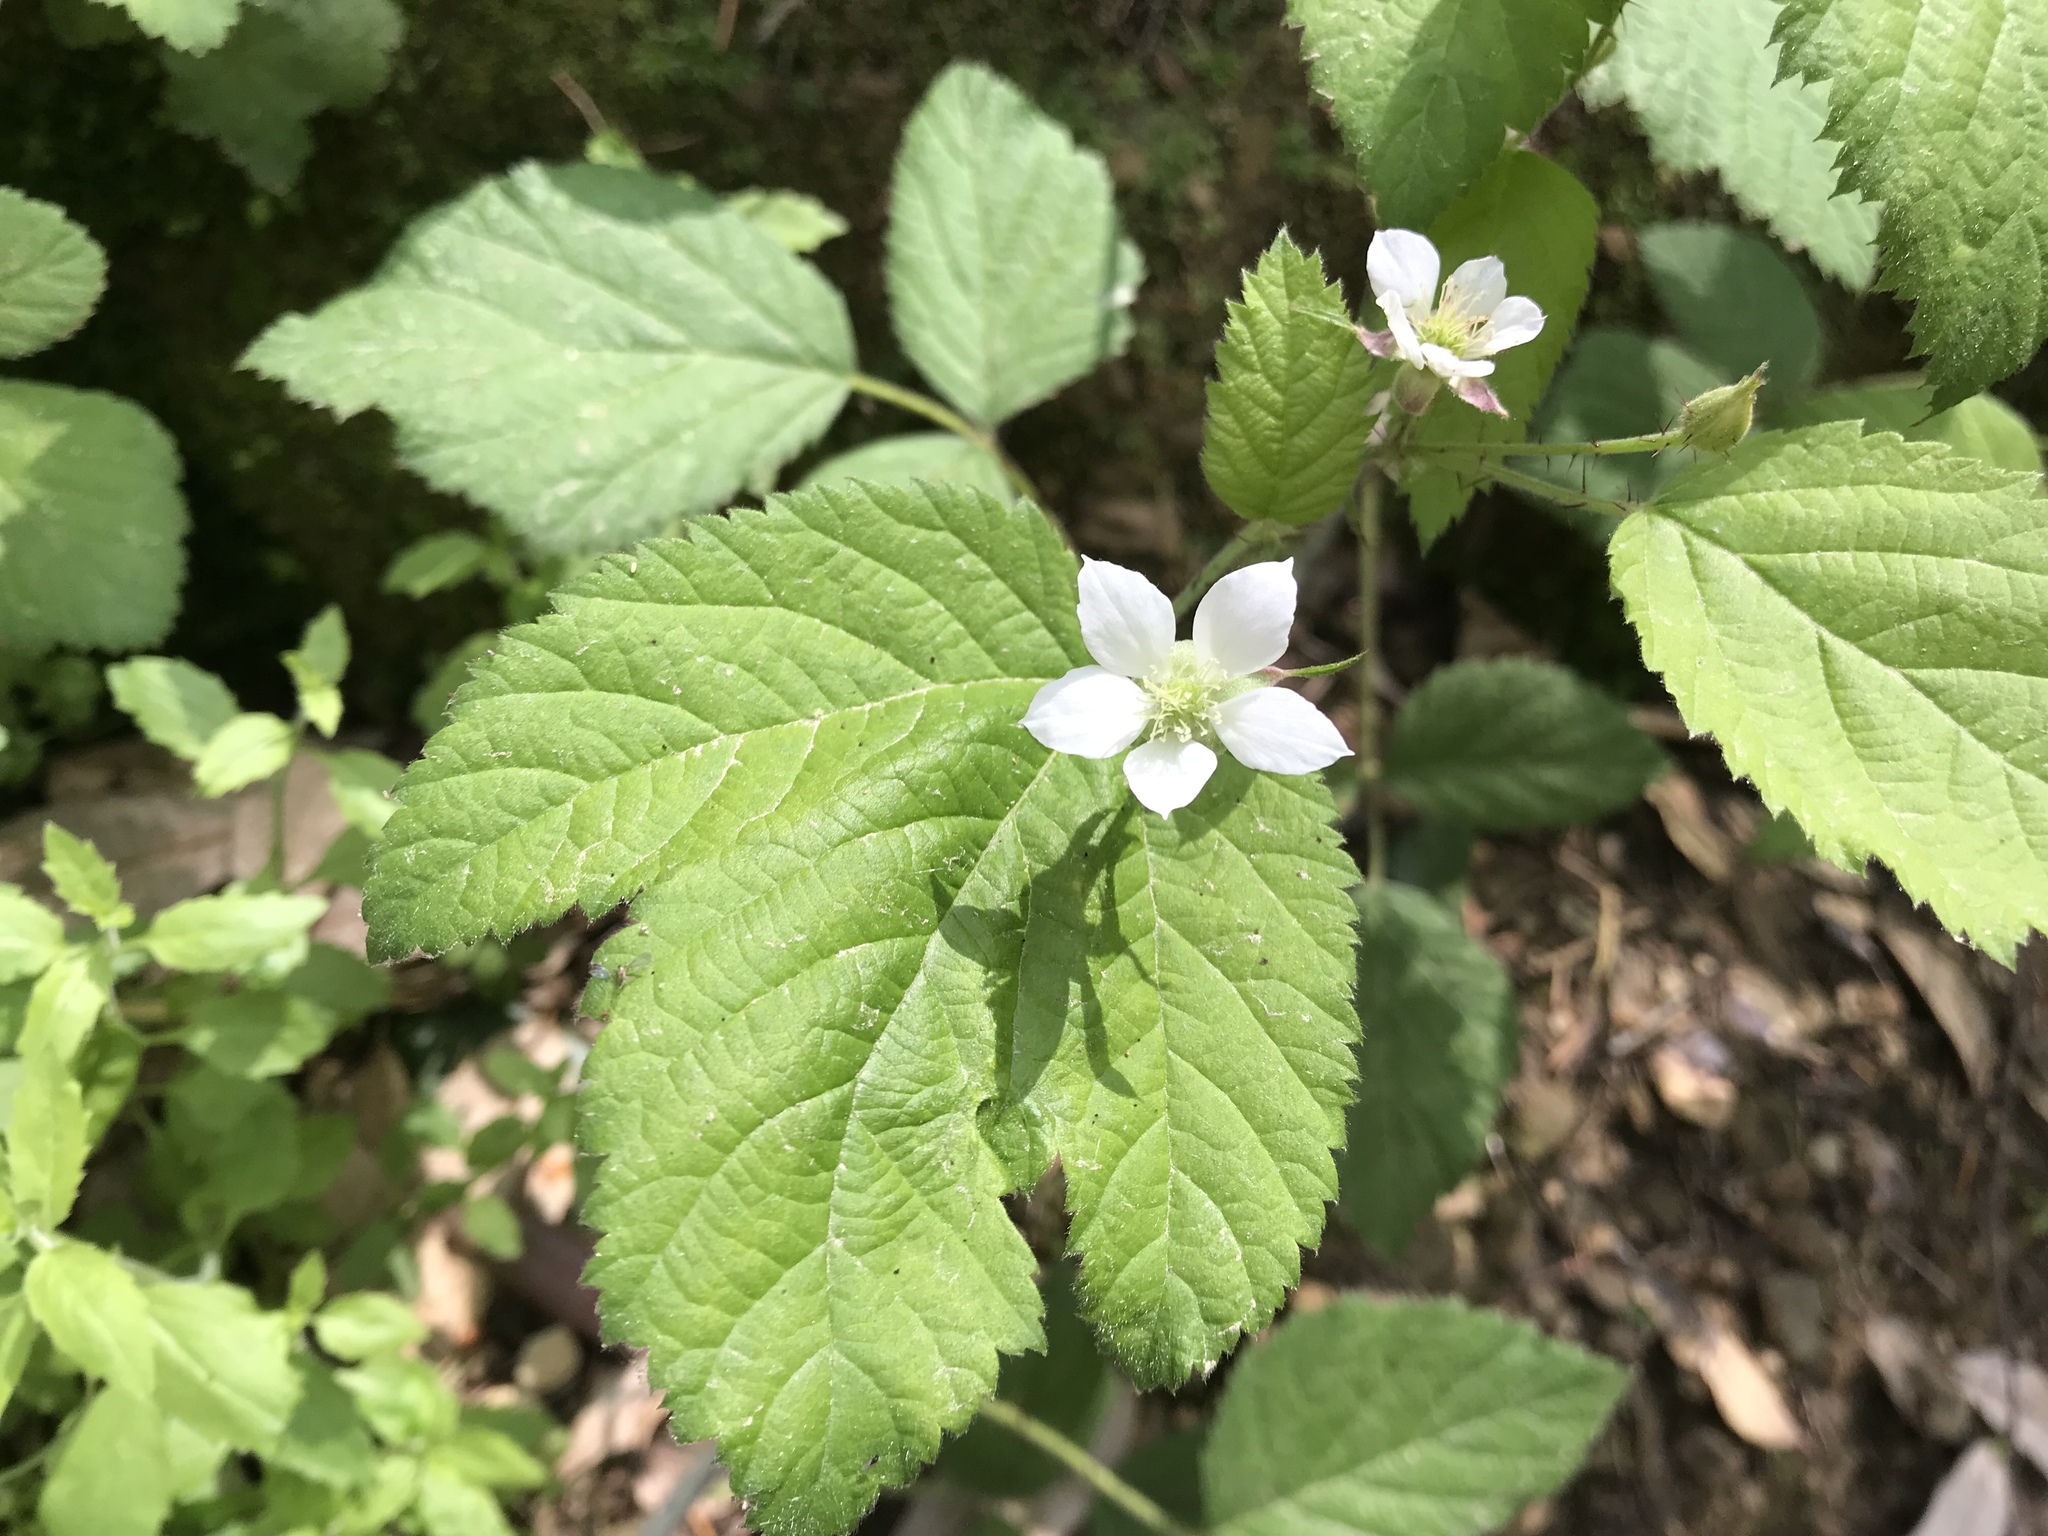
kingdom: Plantae
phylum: Tracheophyta
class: Magnoliopsida
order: Rosales
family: Rosaceae
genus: Rubus
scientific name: Rubus ursinus
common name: Pacific blackberry
